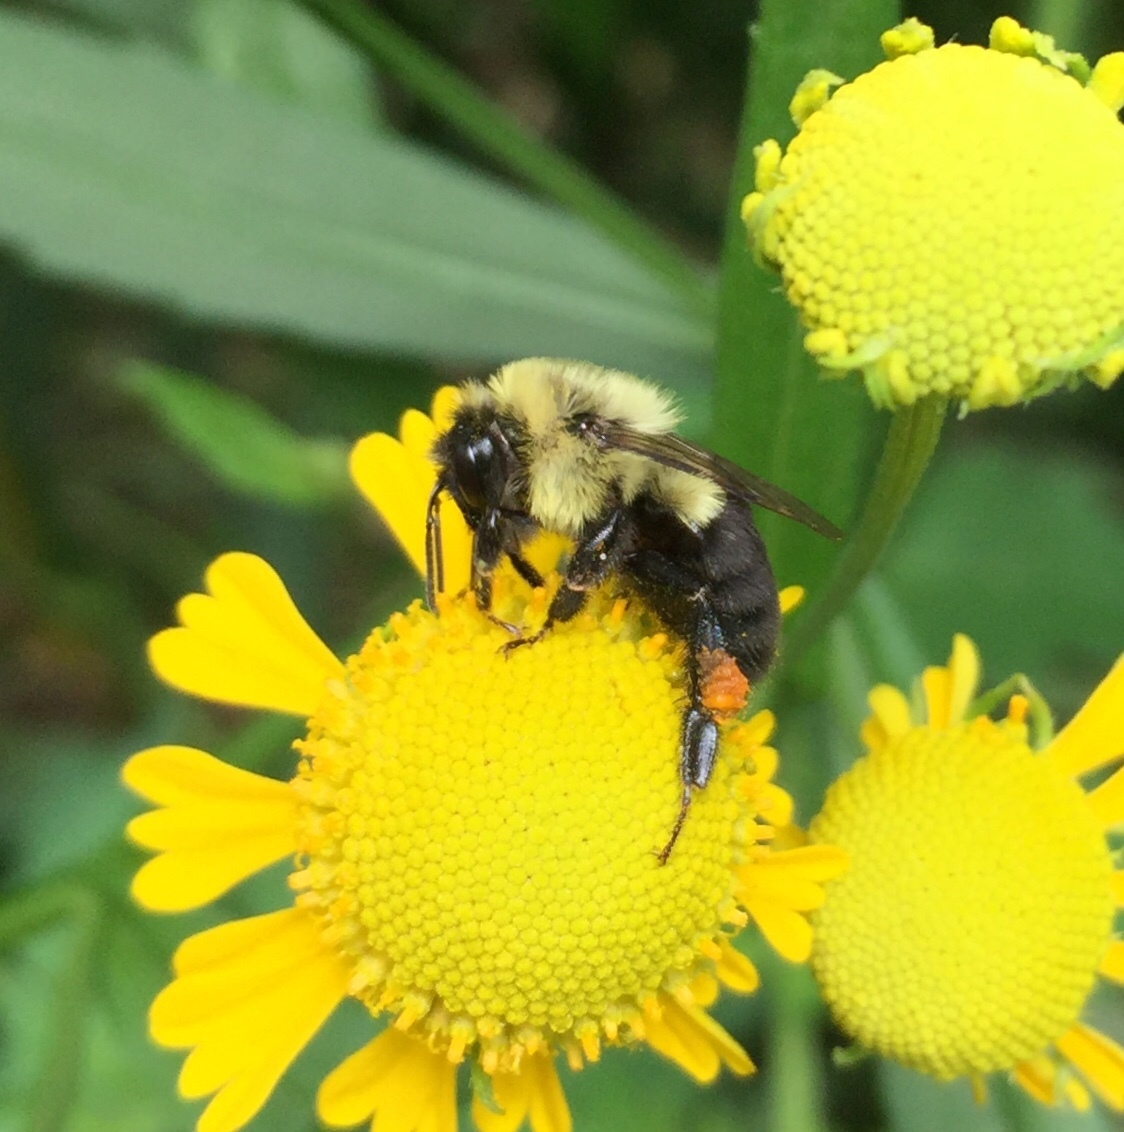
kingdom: Animalia
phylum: Arthropoda
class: Insecta
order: Hymenoptera
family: Apidae
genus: Bombus
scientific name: Bombus impatiens
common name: Common eastern bumble bee
